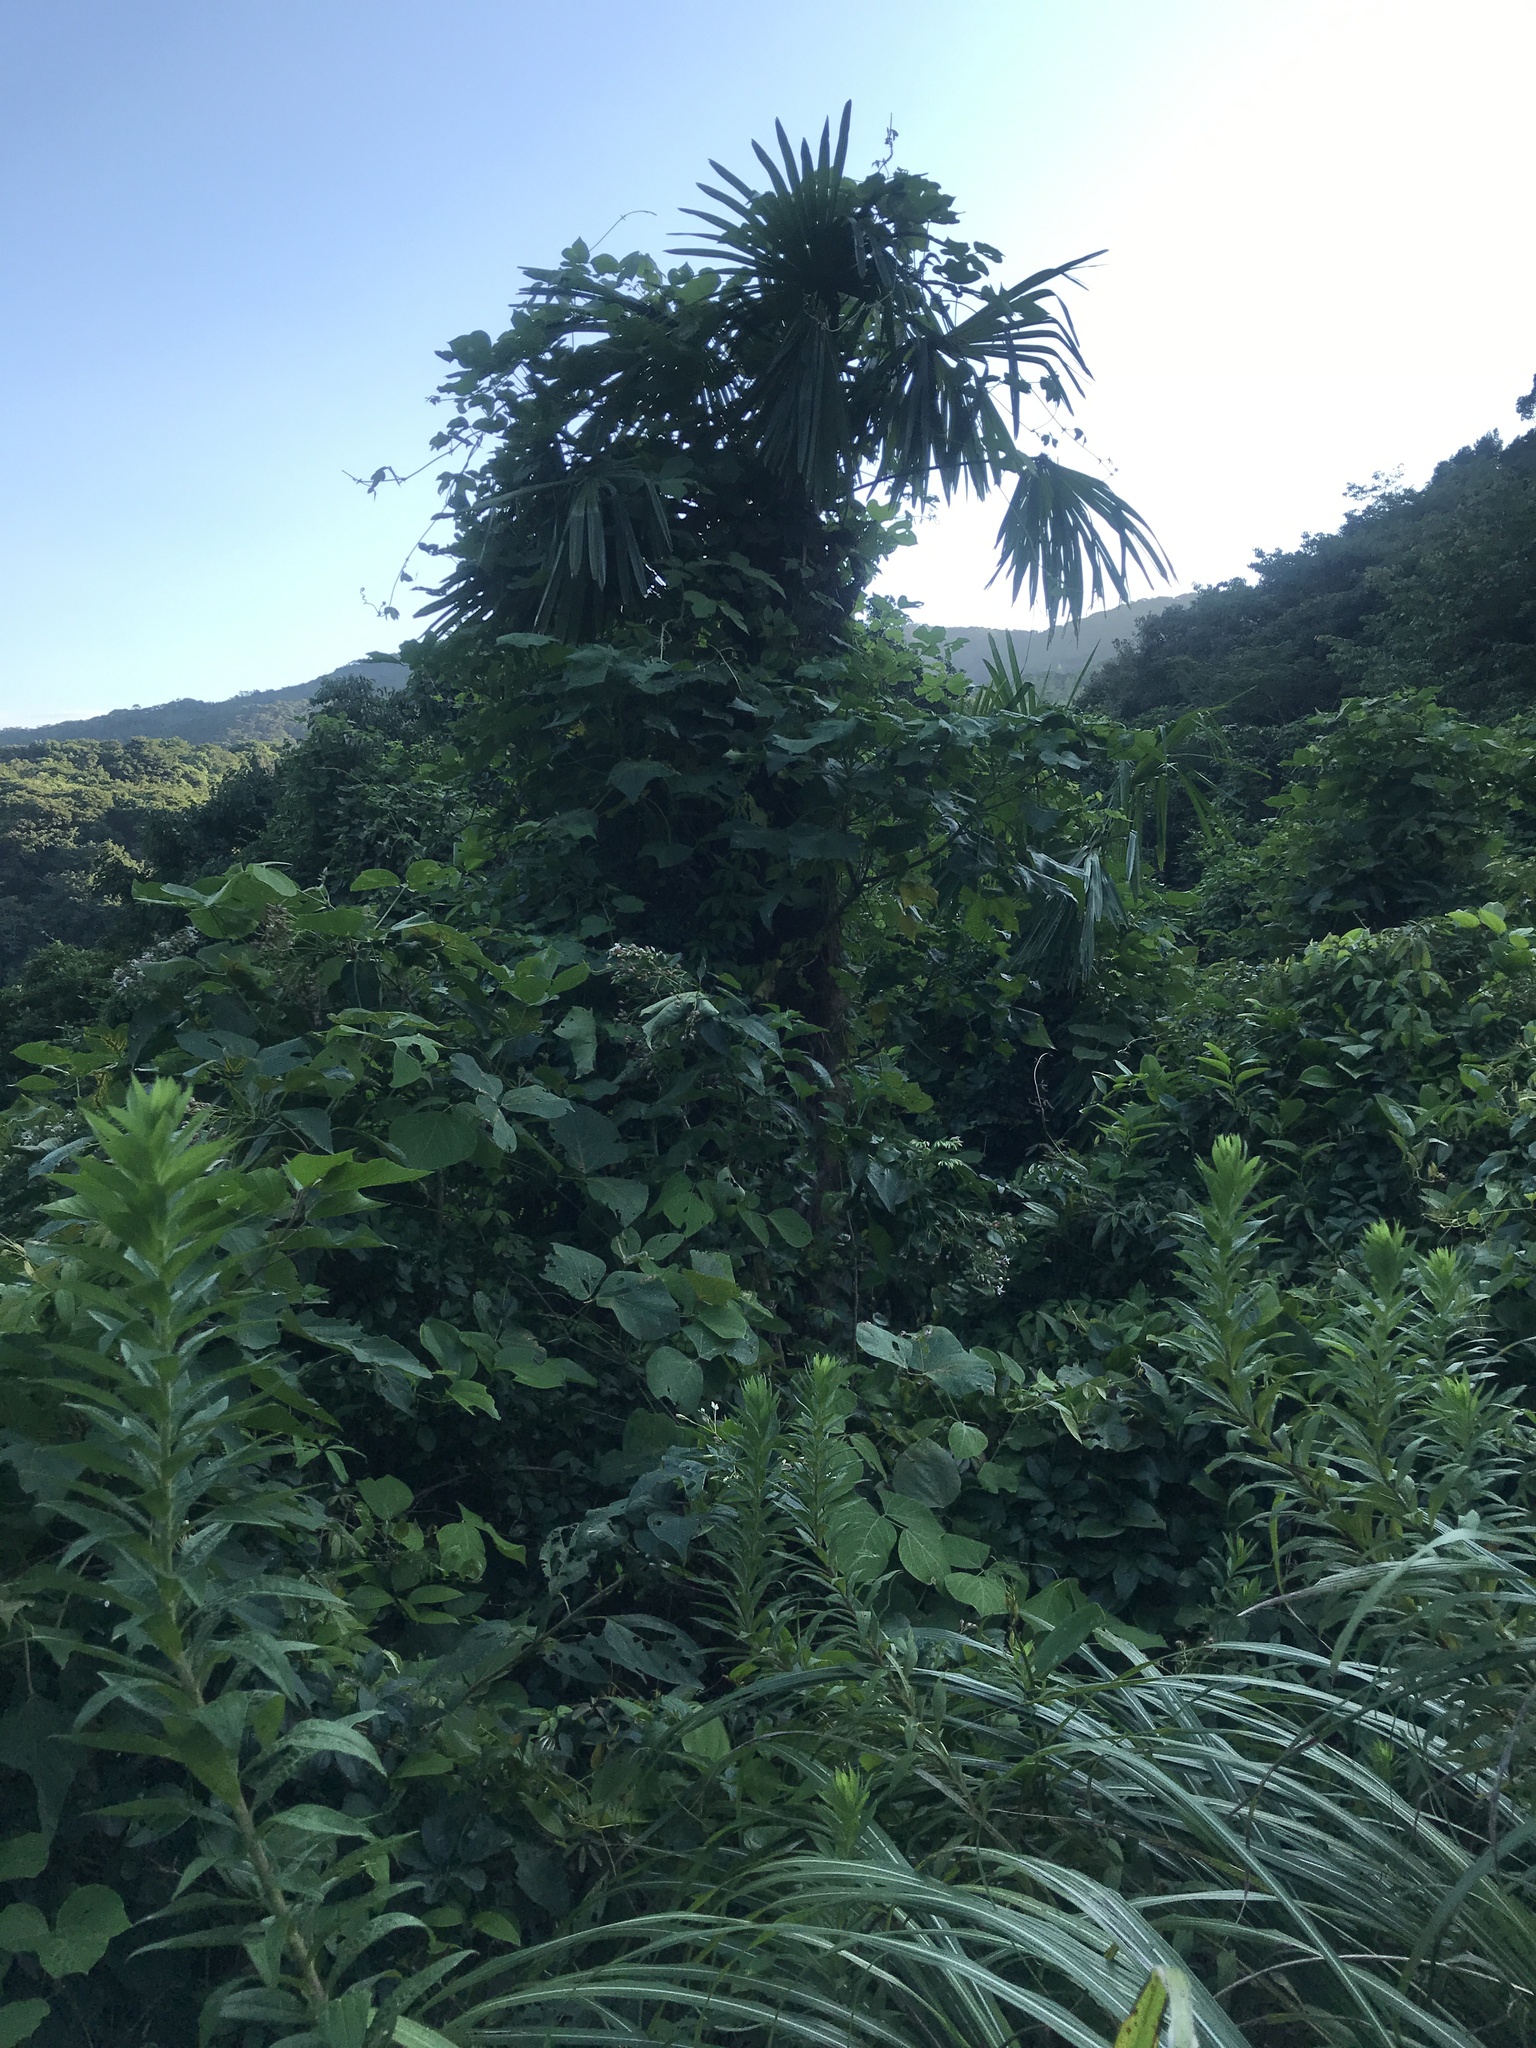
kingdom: Plantae
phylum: Tracheophyta
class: Liliopsida
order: Arecales
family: Arecaceae
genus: Trachycarpus
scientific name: Trachycarpus fortunei
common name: Chusan palm
